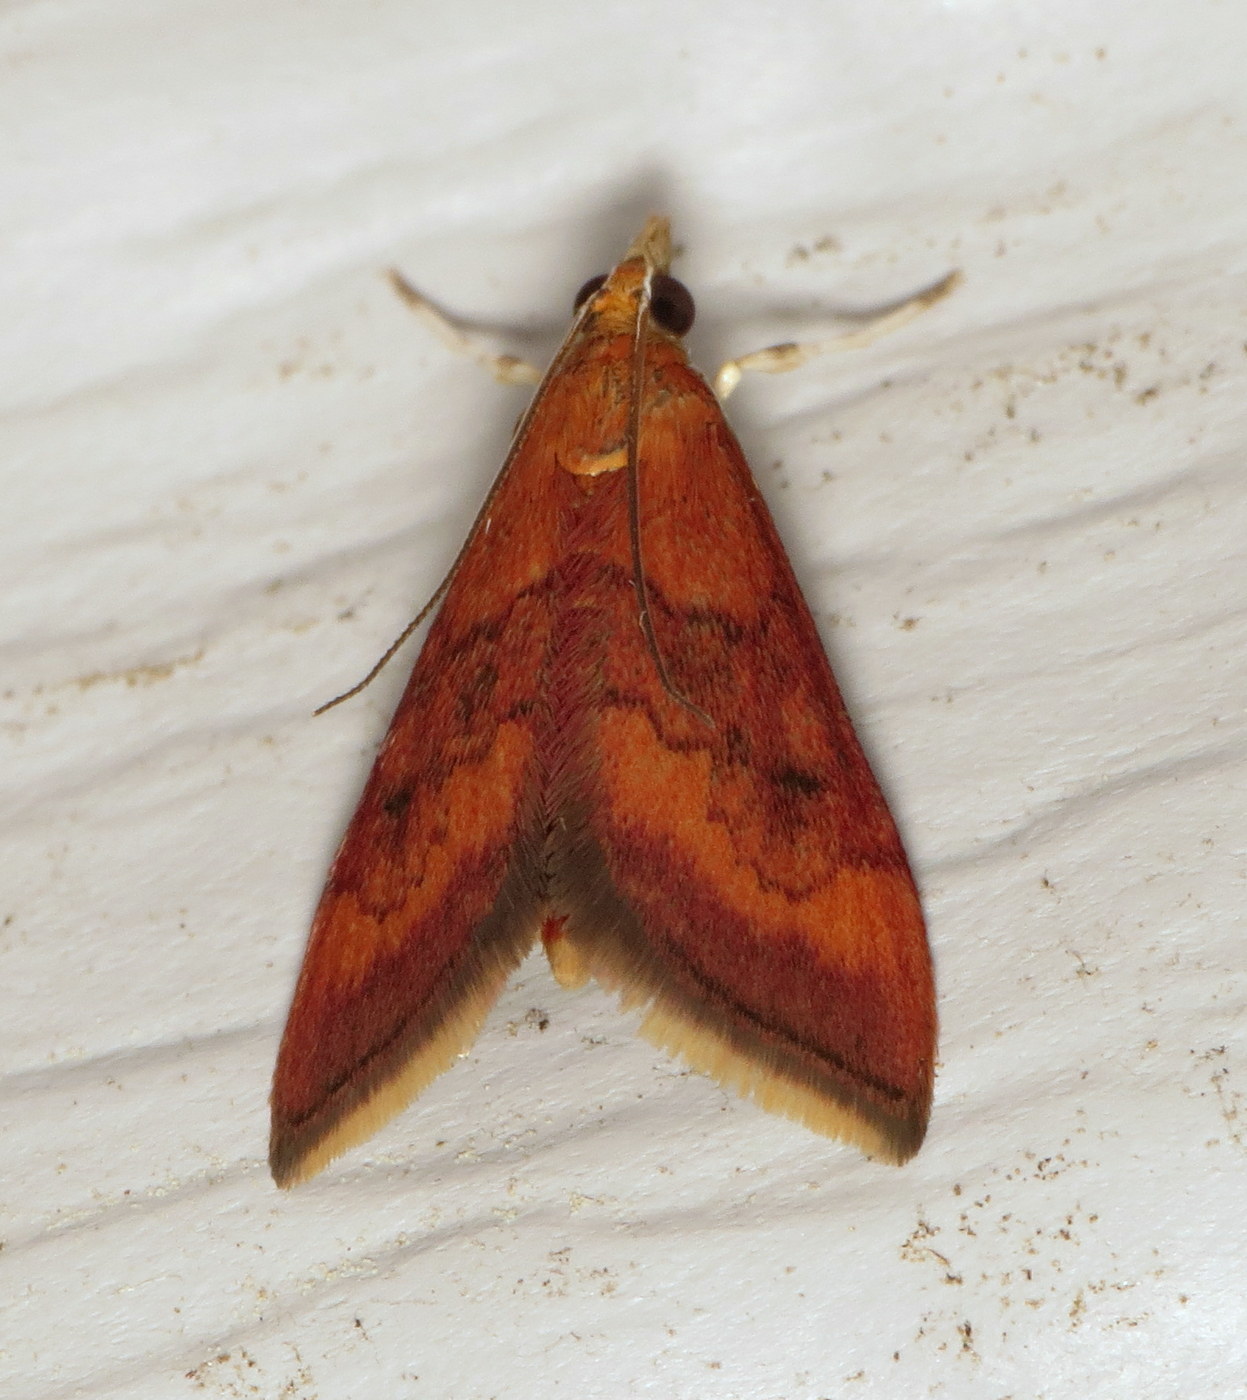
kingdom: Animalia
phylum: Arthropoda
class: Insecta
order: Lepidoptera
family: Crambidae
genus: Pyrausta
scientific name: Pyrausta rubricalis
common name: Variable reddish pyrausta
